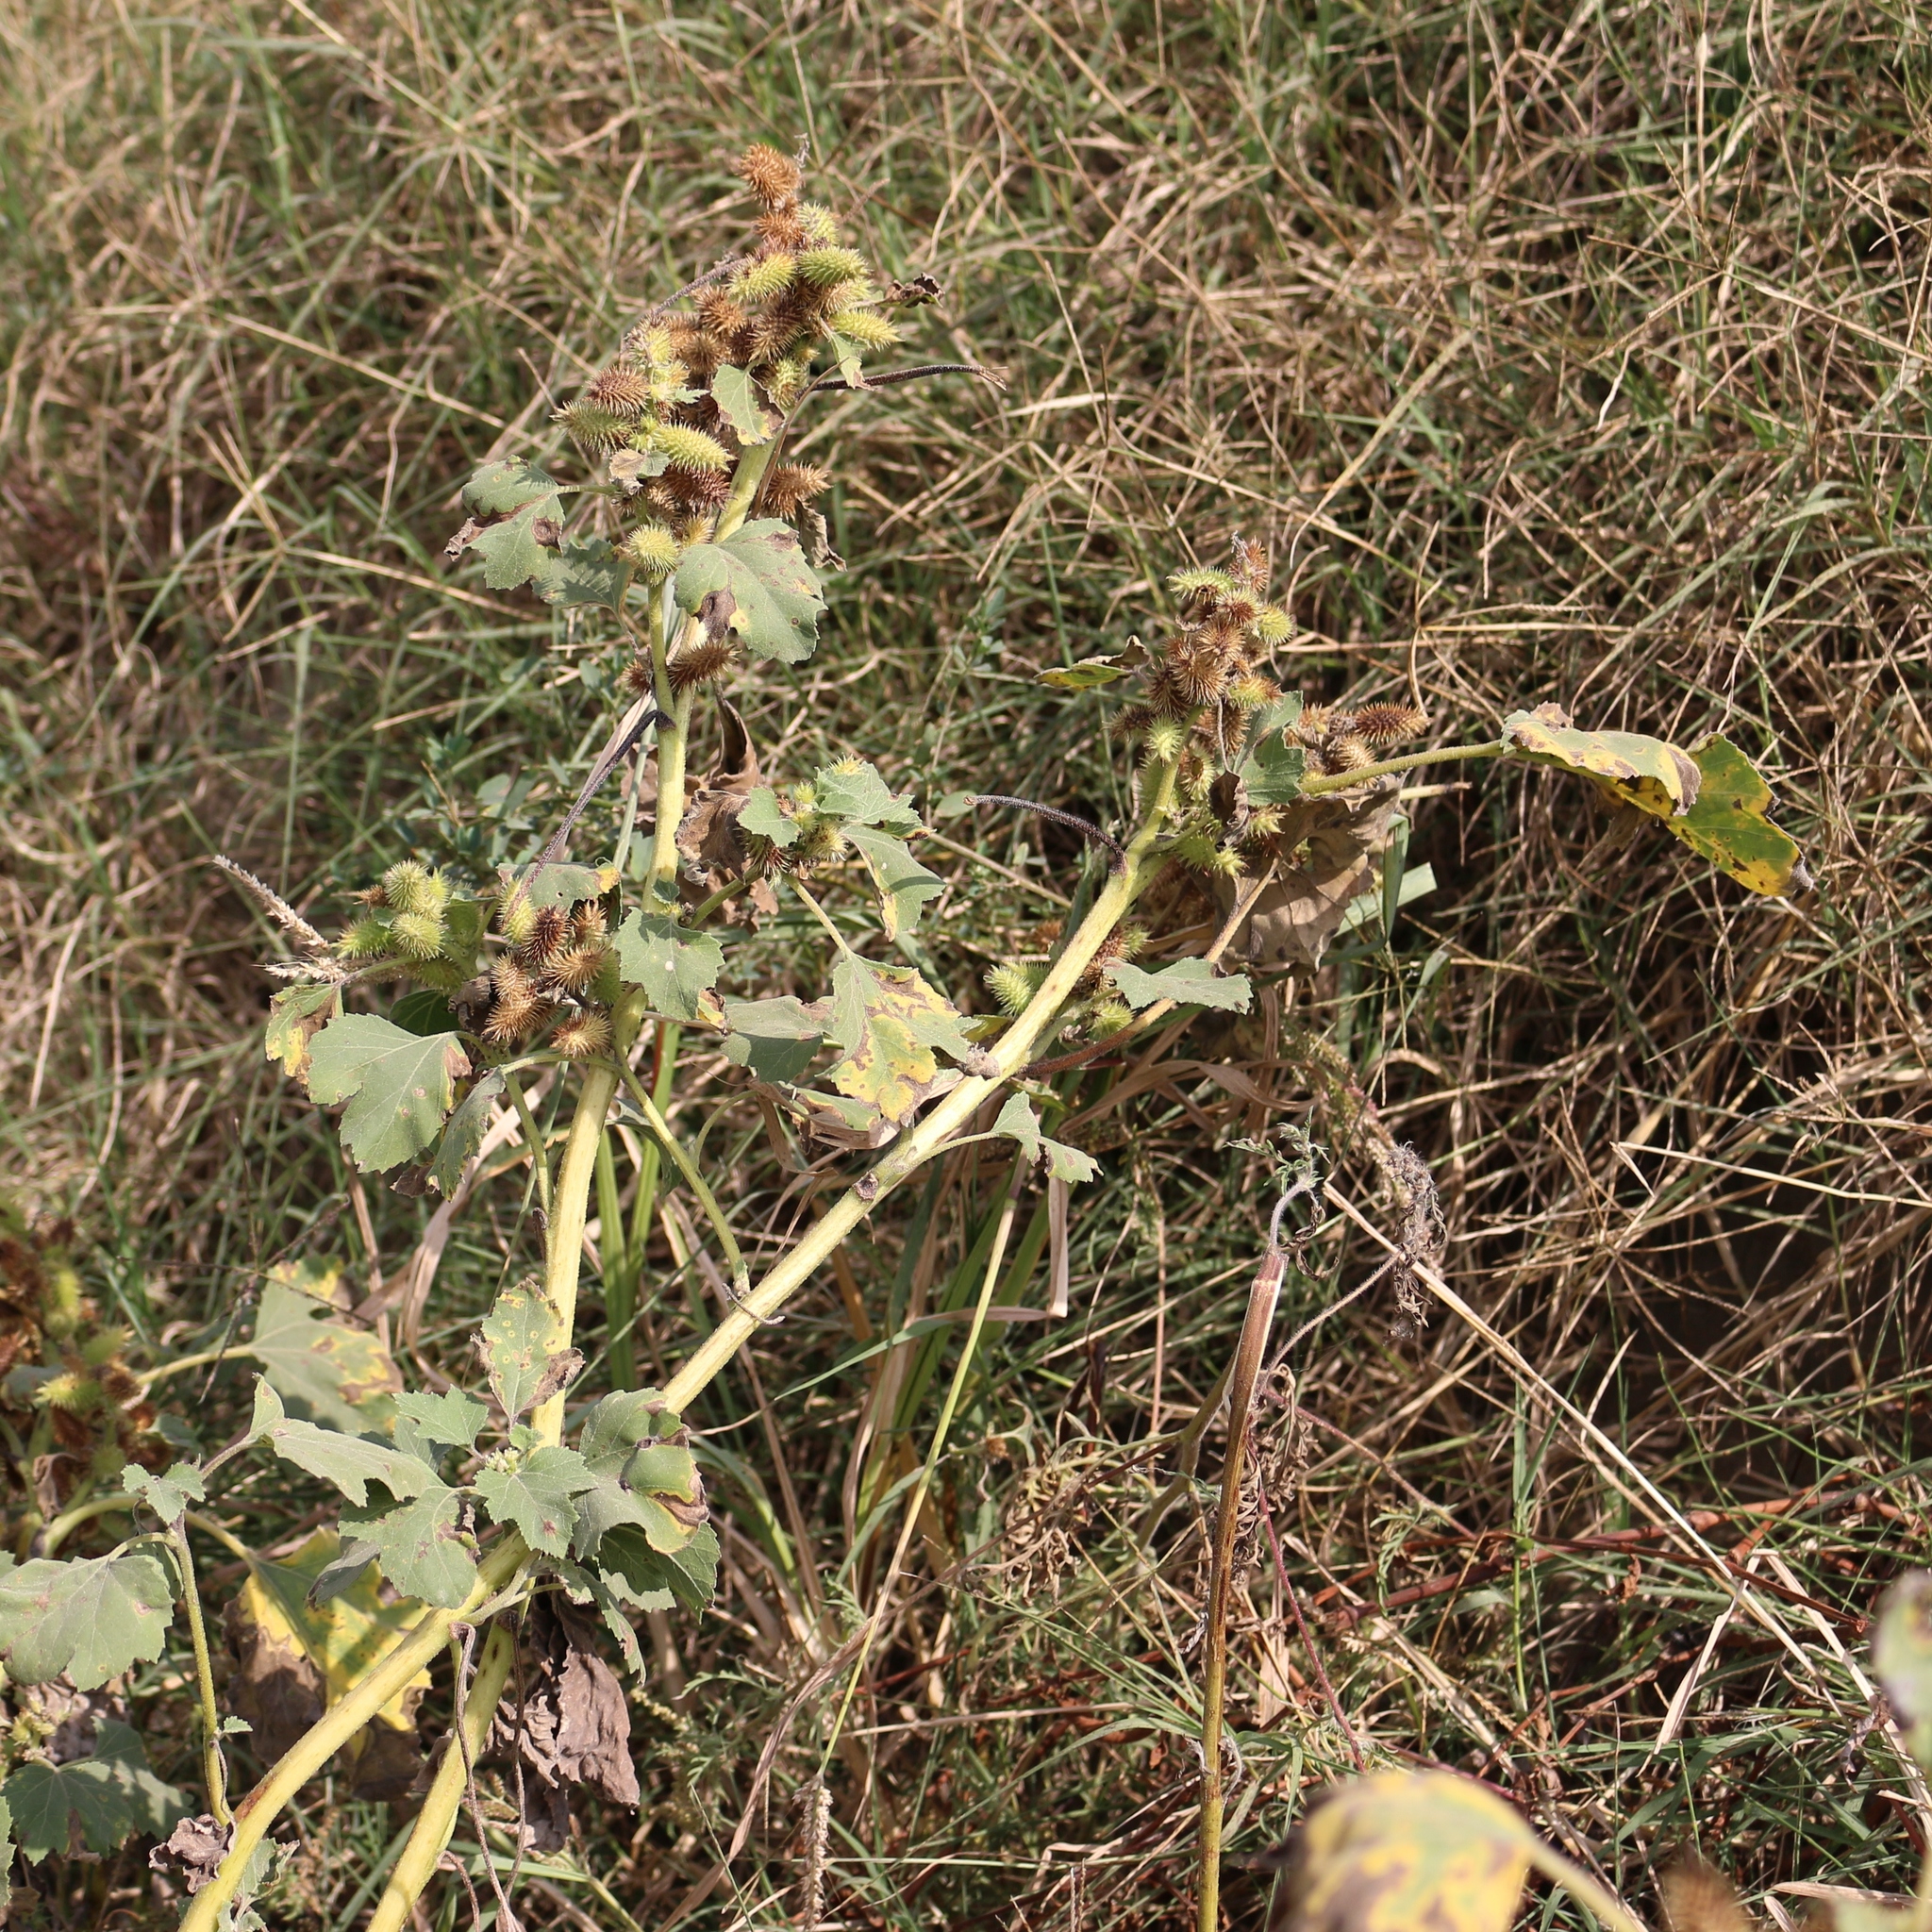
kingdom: Plantae
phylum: Tracheophyta
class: Magnoliopsida
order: Asterales
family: Asteraceae
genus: Xanthium
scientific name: Xanthium orientale
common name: Californian burr
